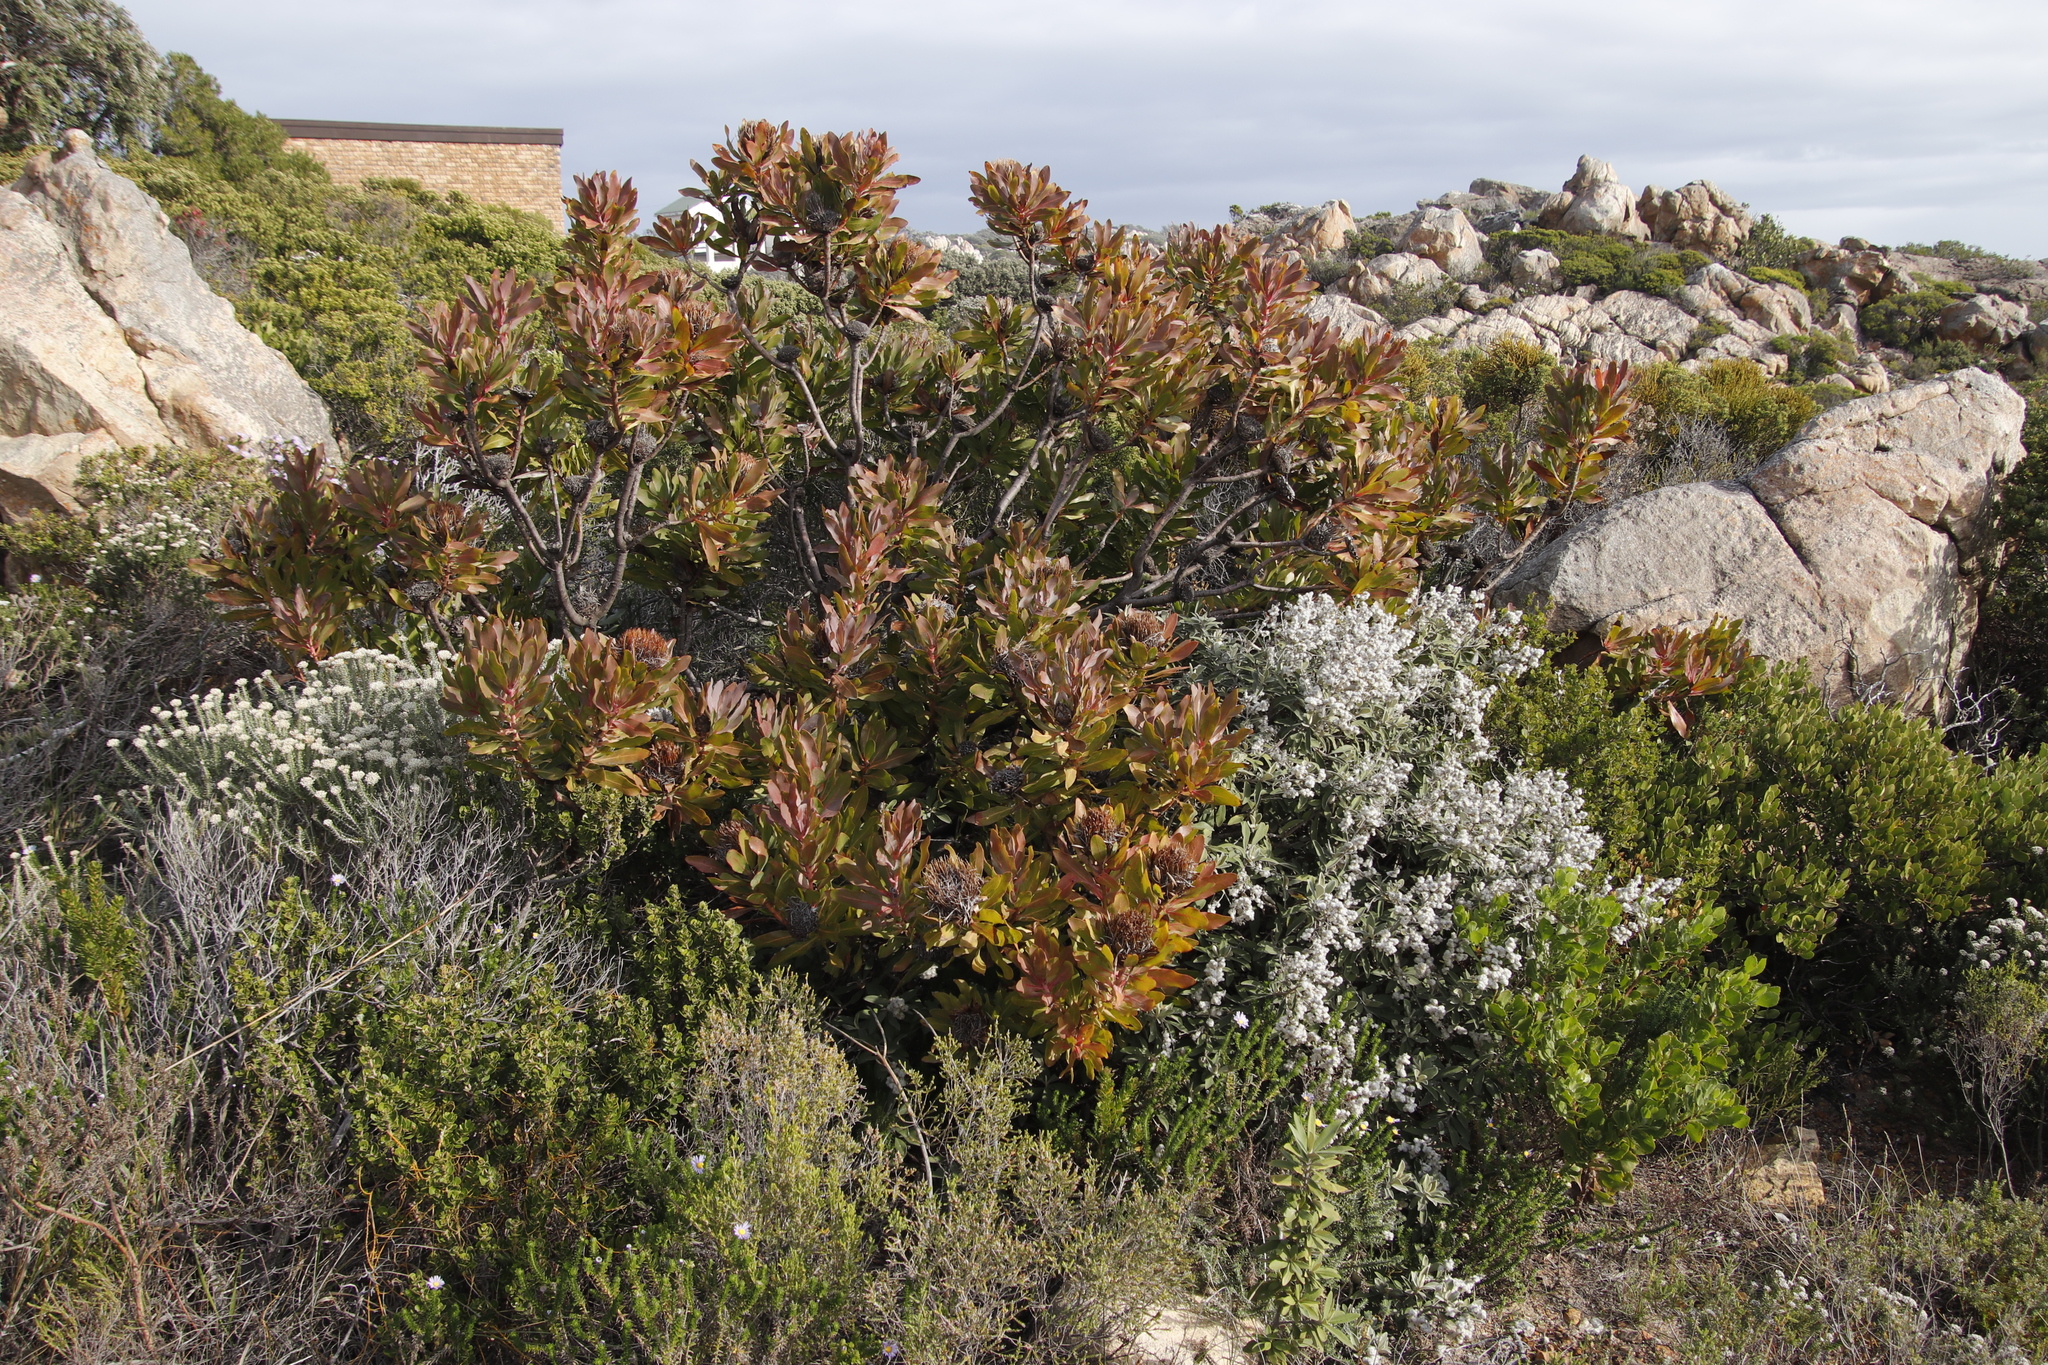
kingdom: Plantae
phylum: Tracheophyta
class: Magnoliopsida
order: Proteales
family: Proteaceae
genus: Protea
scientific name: Protea
